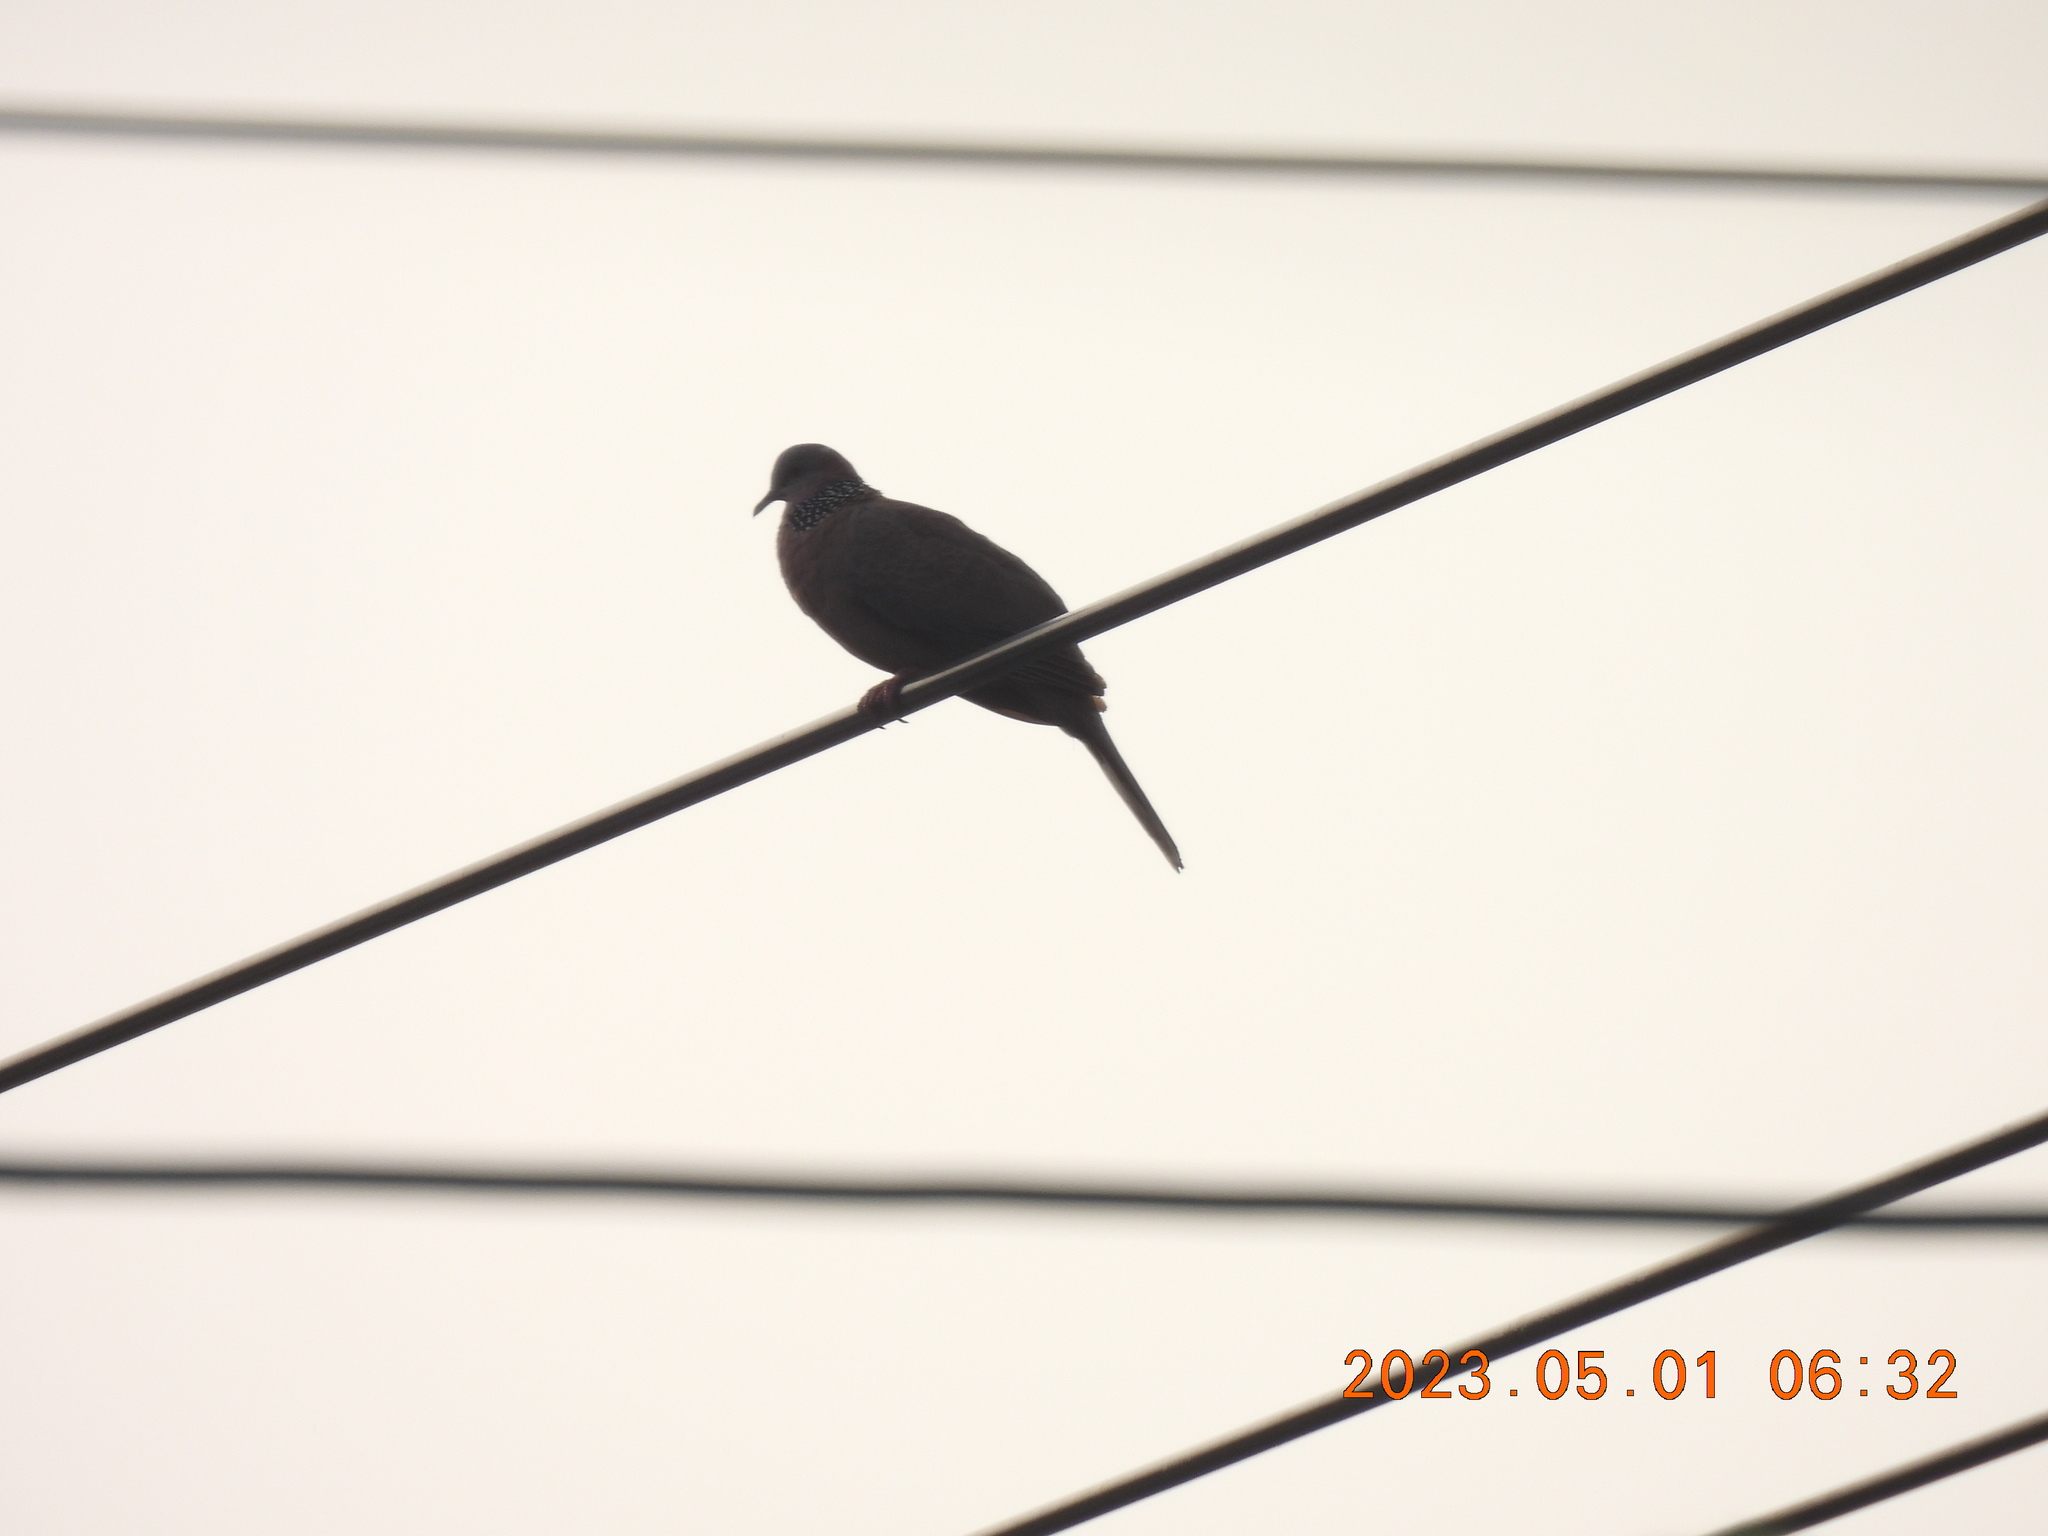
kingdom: Animalia
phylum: Chordata
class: Aves
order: Columbiformes
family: Columbidae
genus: Spilopelia
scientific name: Spilopelia chinensis
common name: Spotted dove
